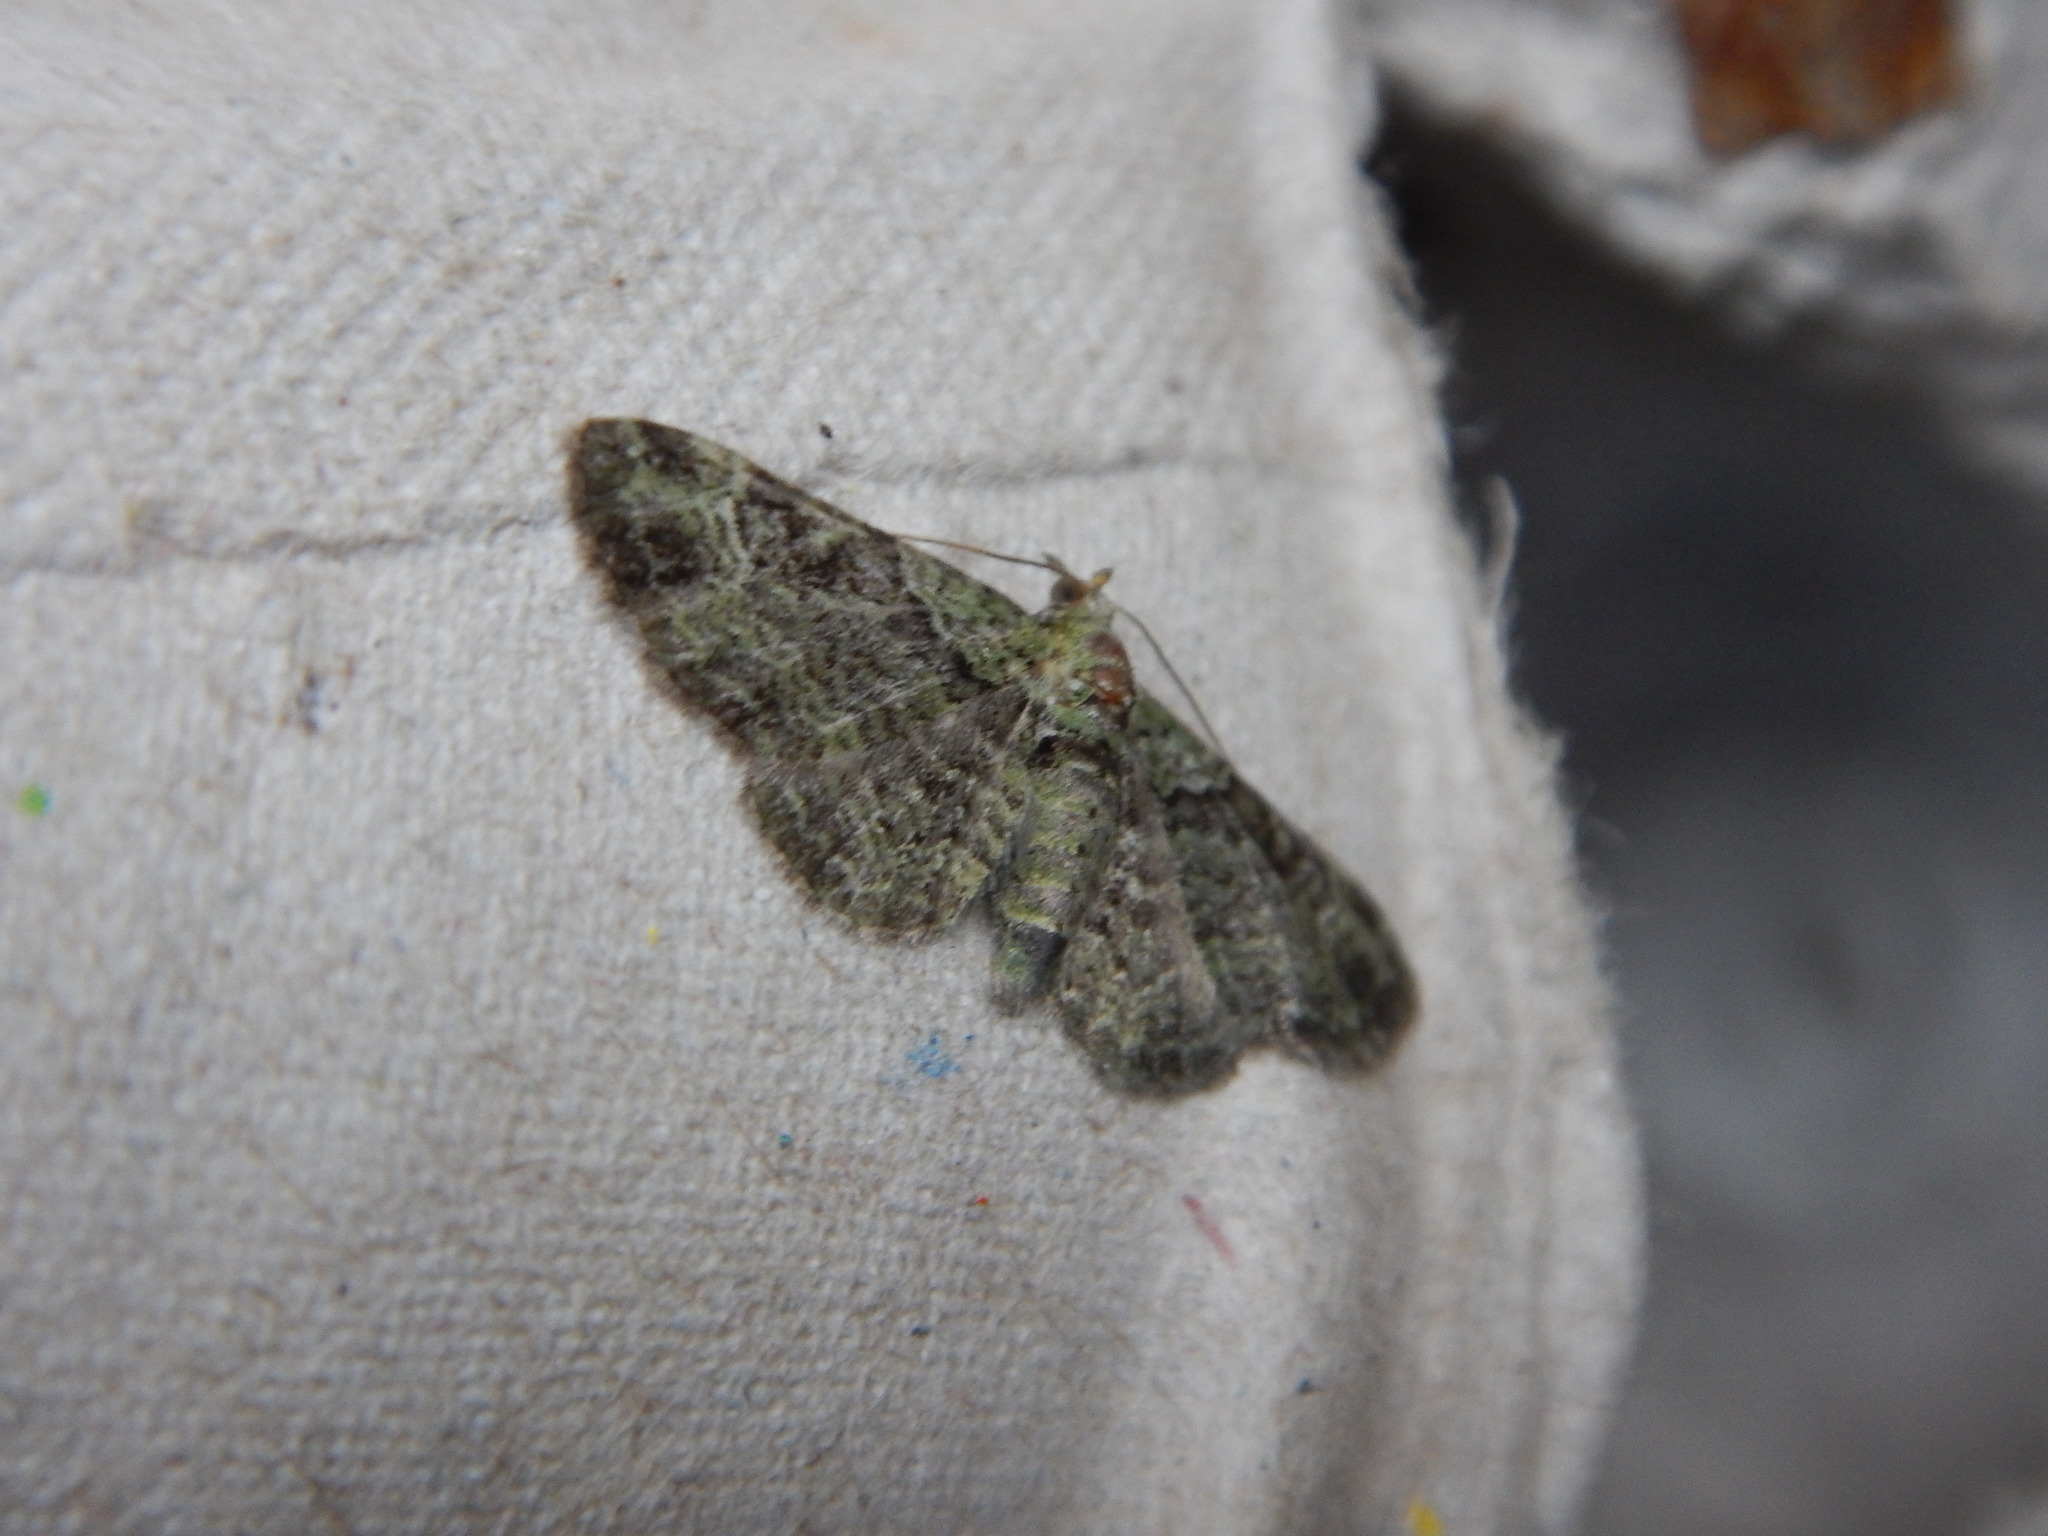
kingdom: Animalia
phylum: Arthropoda
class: Insecta
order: Lepidoptera
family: Geometridae
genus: Pasiphila
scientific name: Pasiphila rectangulata
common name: Green pug
